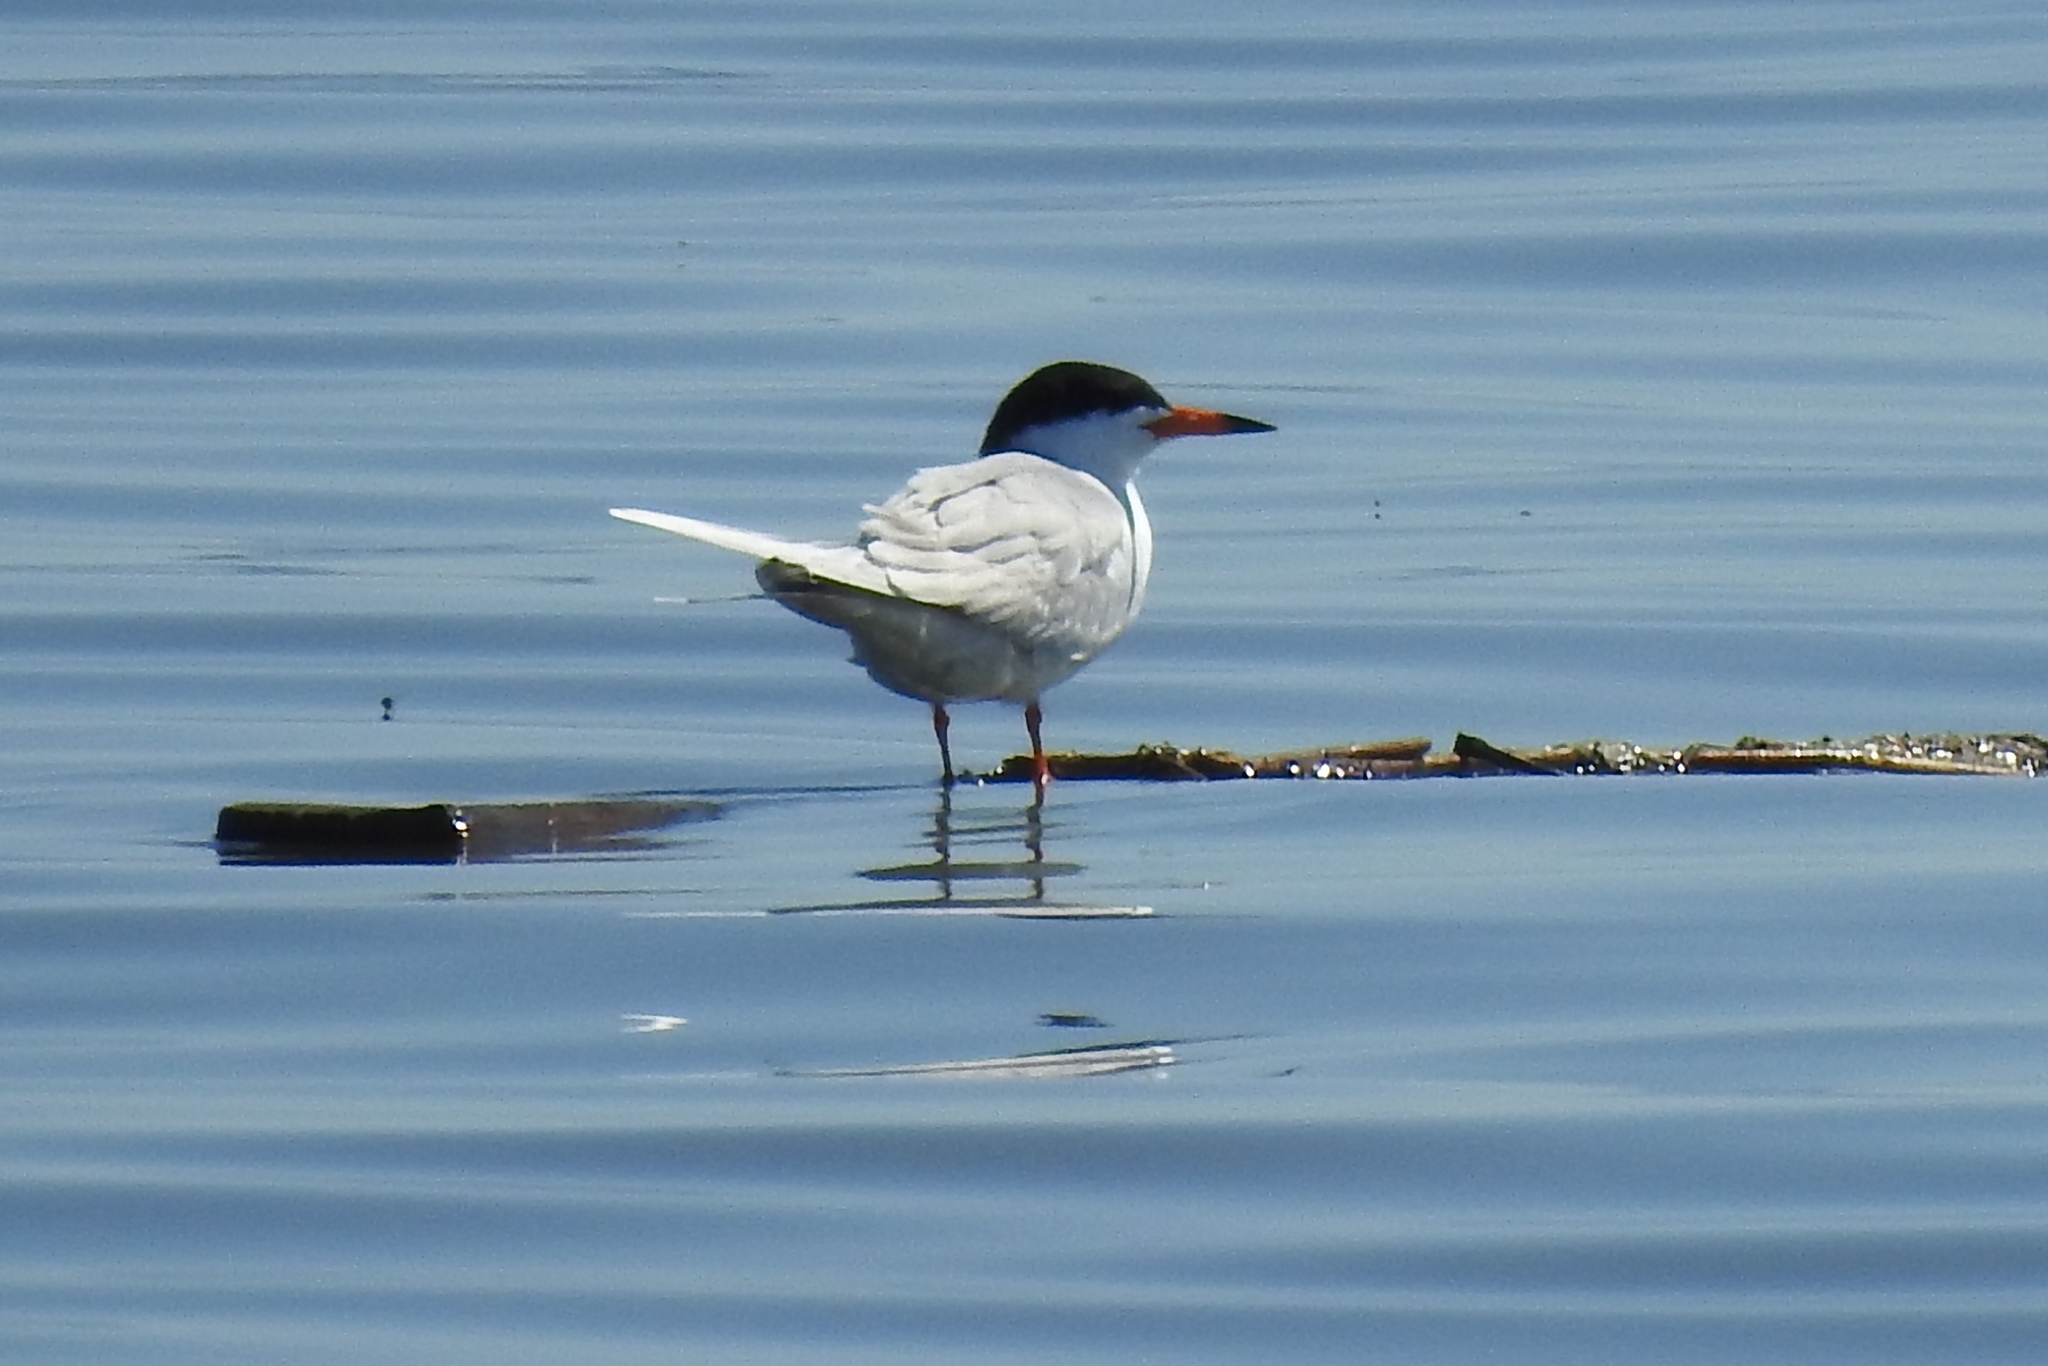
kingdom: Animalia
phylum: Chordata
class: Aves
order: Charadriiformes
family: Laridae
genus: Sterna
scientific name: Sterna forsteri
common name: Forster's tern
